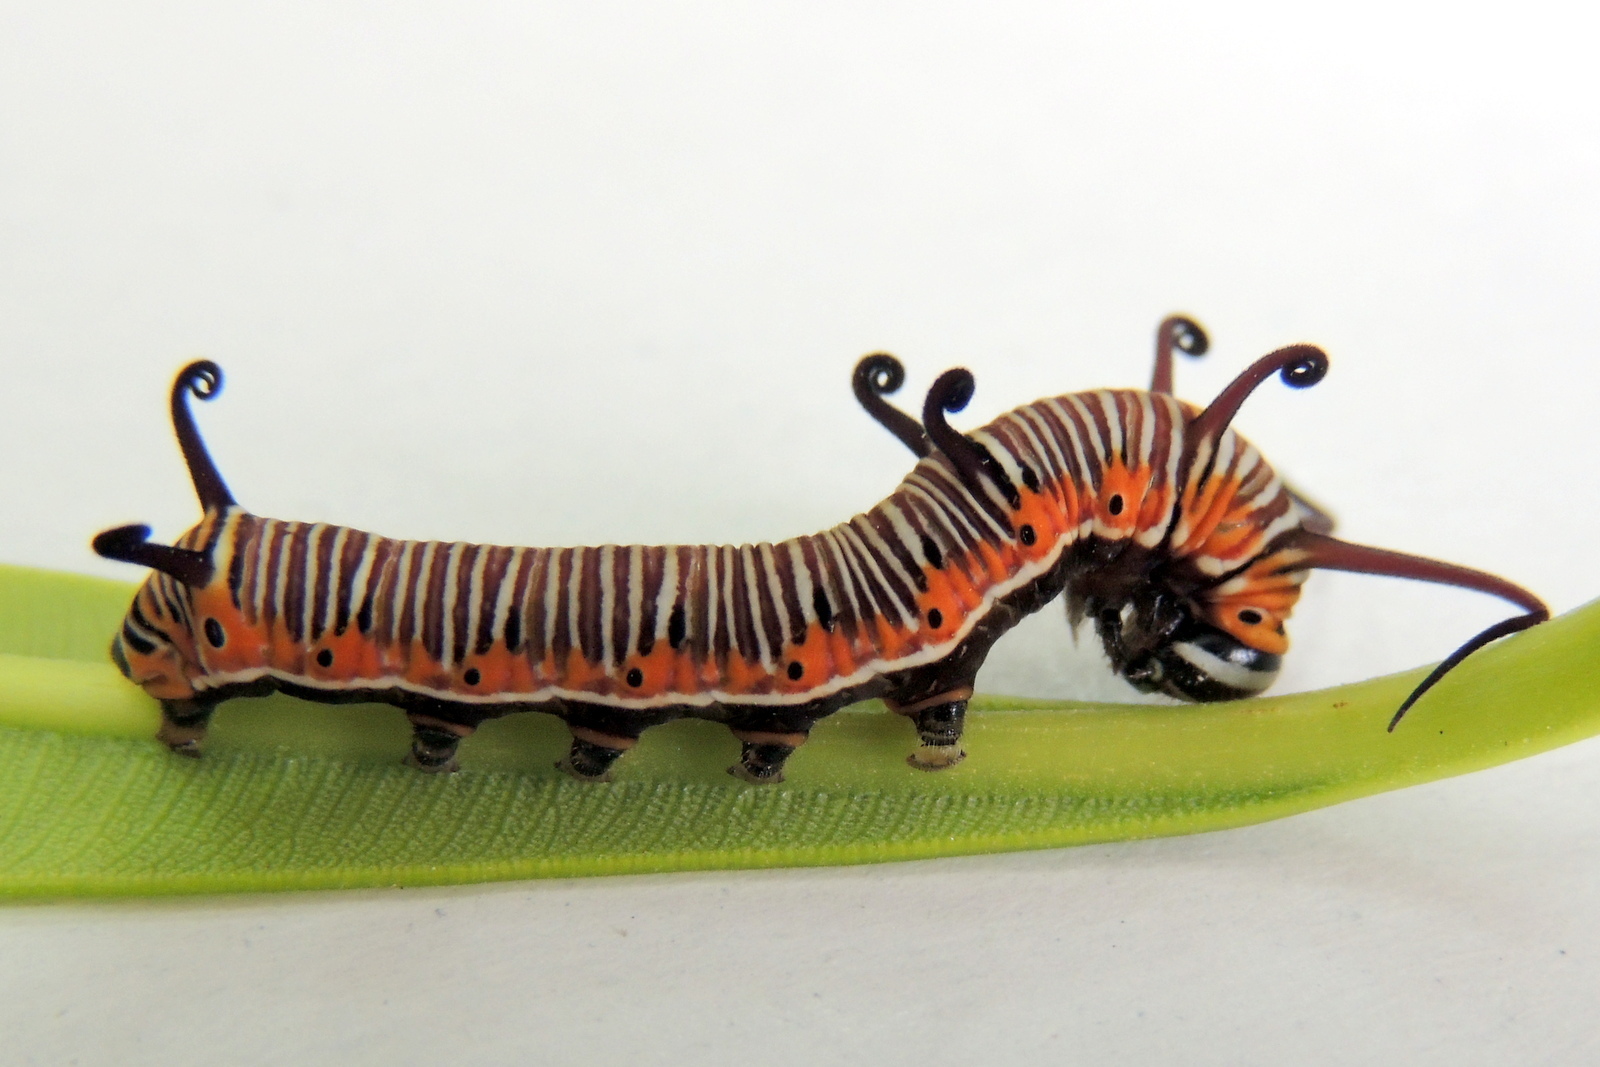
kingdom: Animalia
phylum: Arthropoda
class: Insecta
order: Lepidoptera
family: Nymphalidae
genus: Euploea
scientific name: Euploea core
